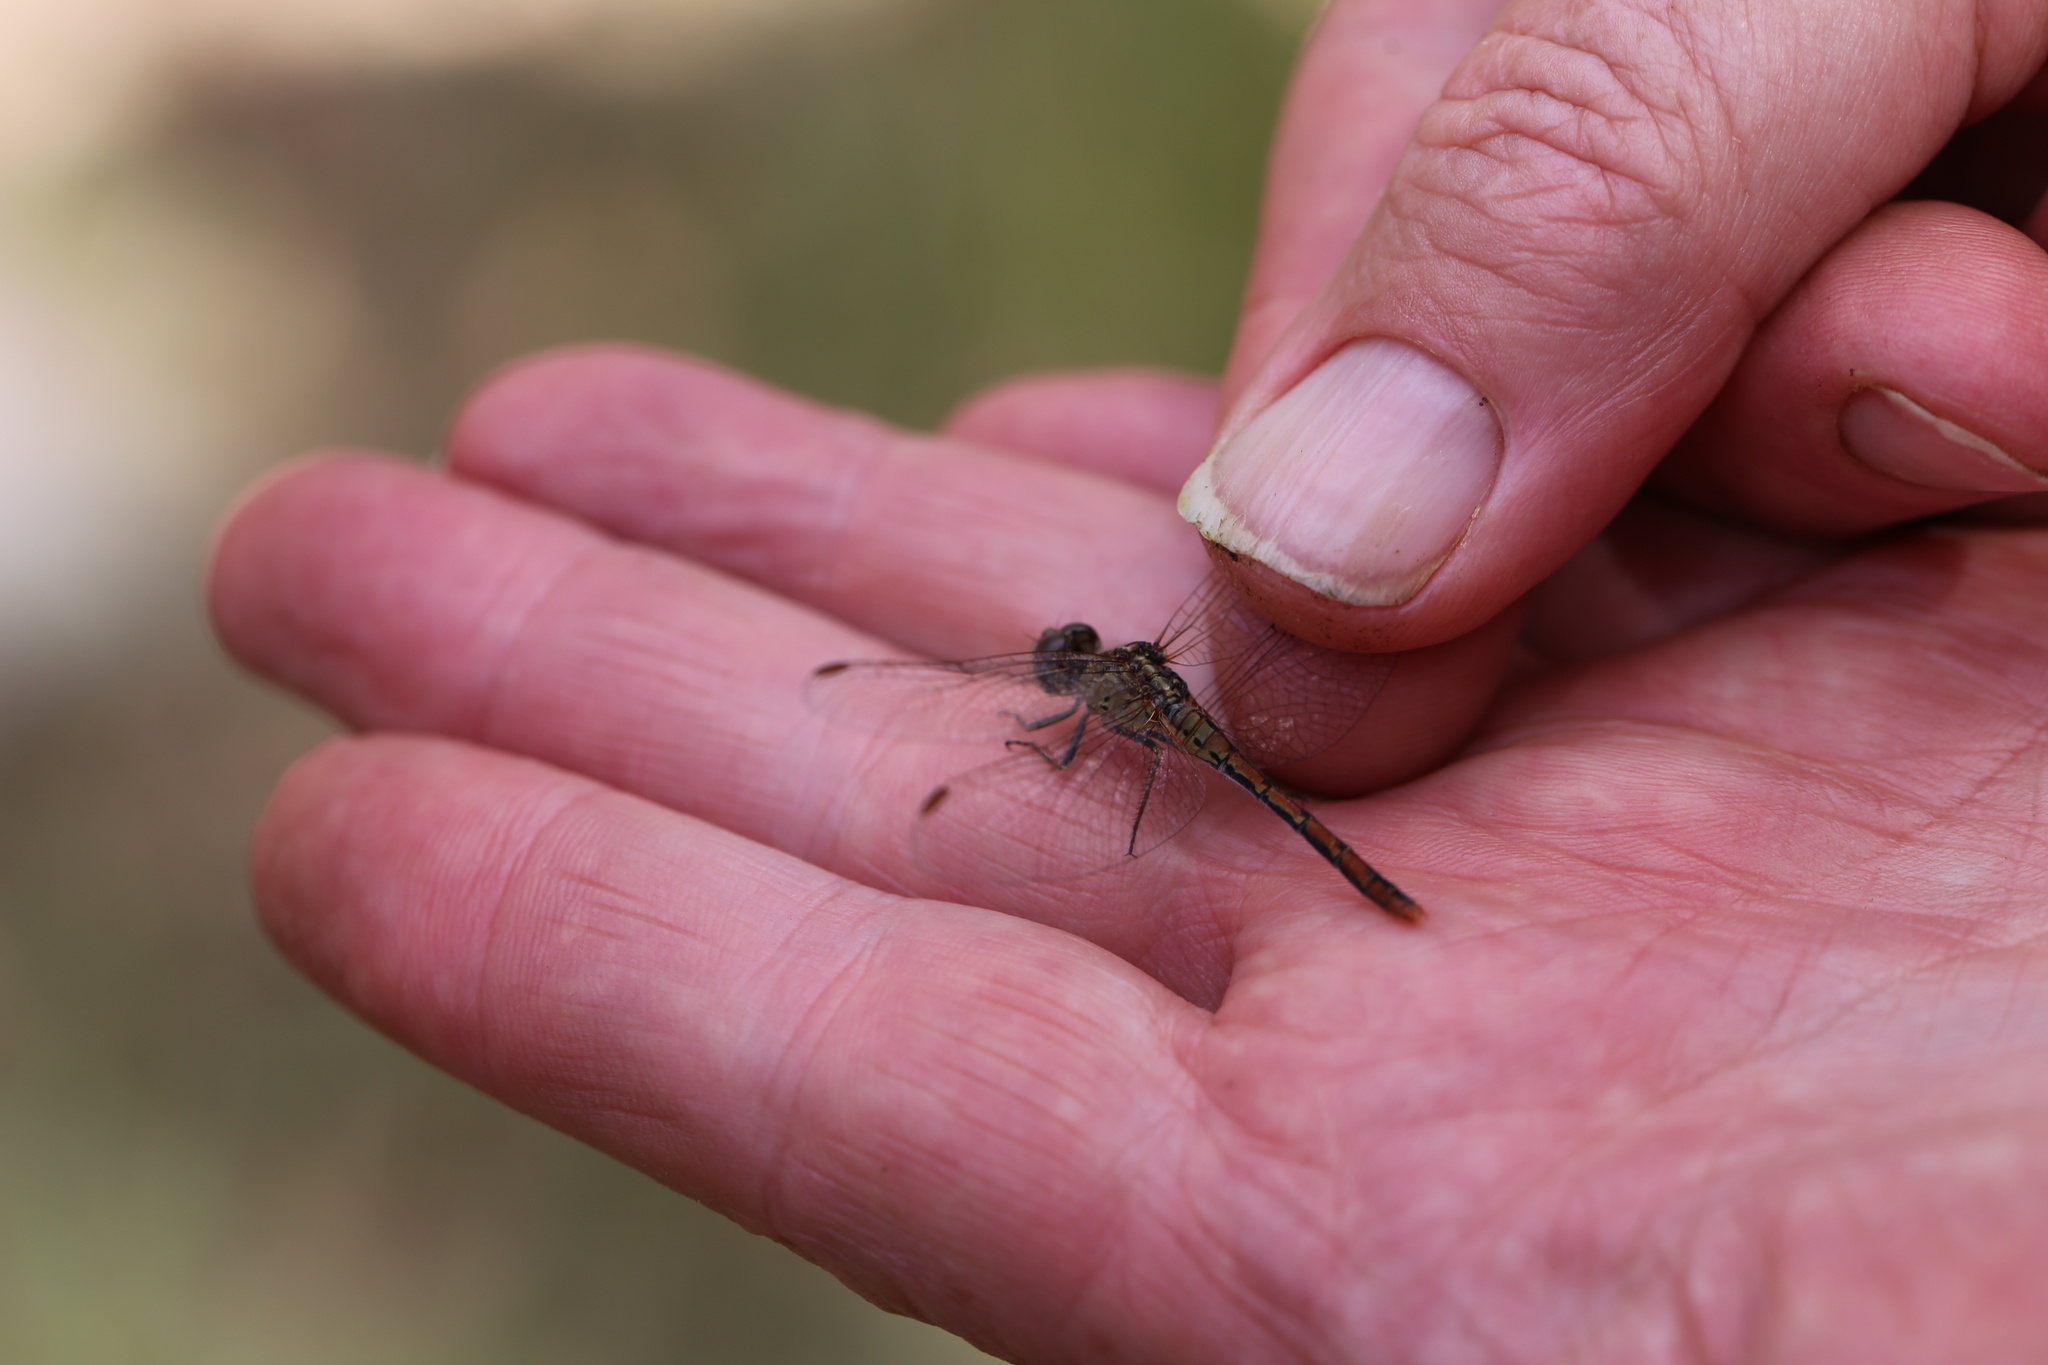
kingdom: Animalia
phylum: Arthropoda
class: Insecta
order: Odonata
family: Libellulidae
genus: Diplacodes
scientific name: Diplacodes bipunctata
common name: Red percher dragonfly
